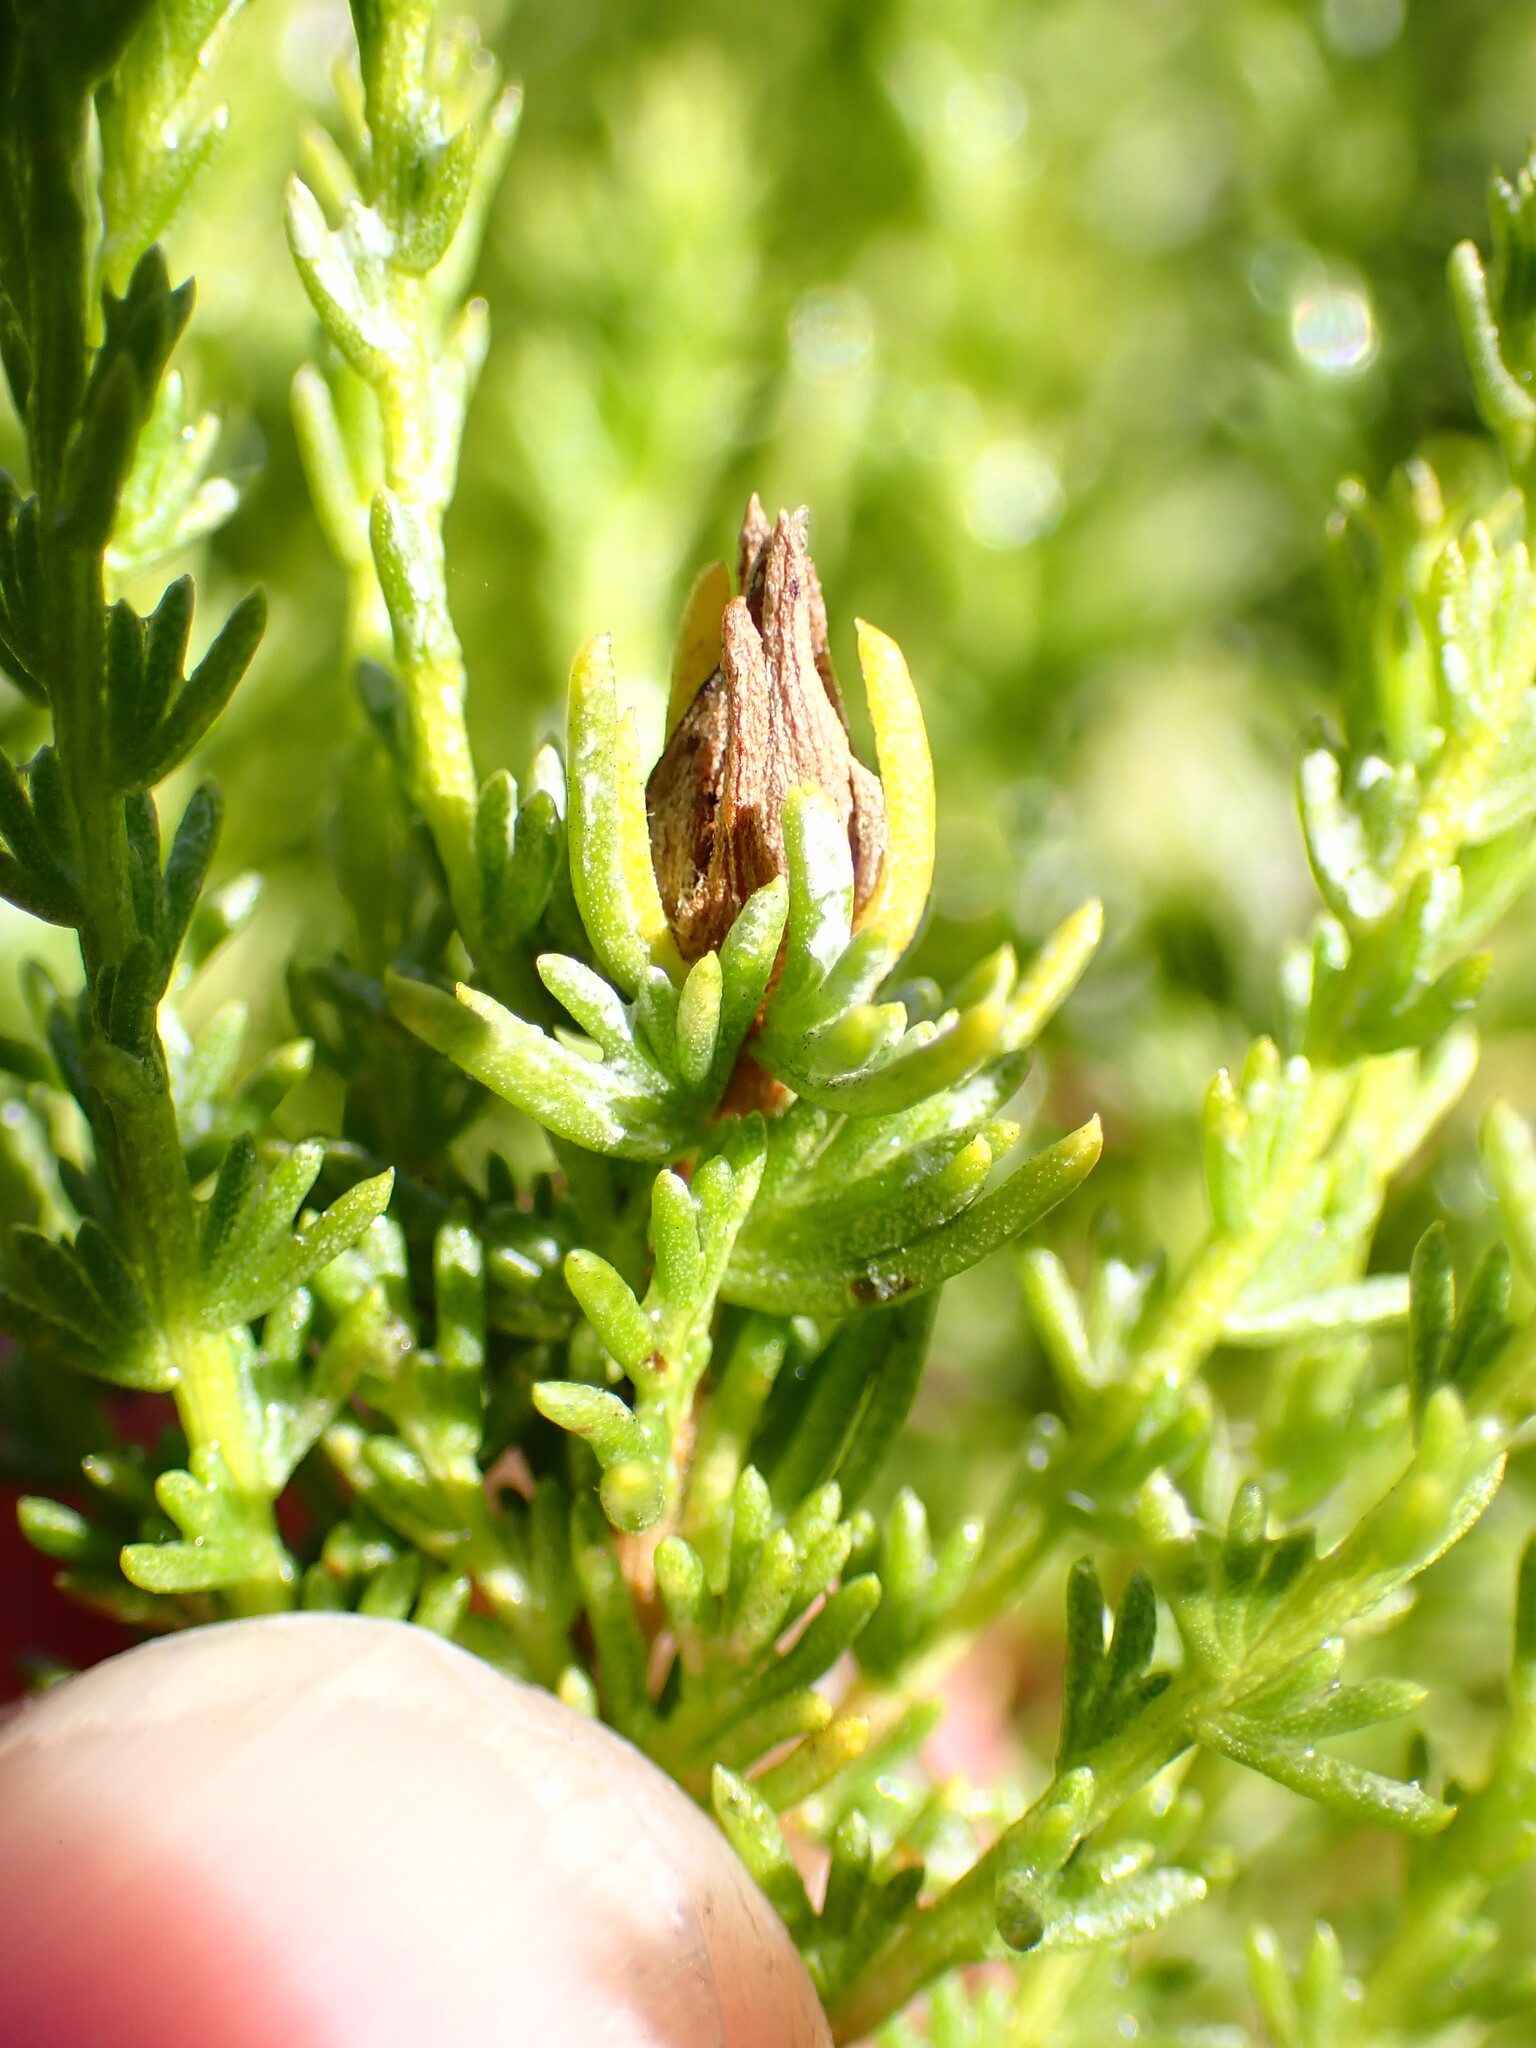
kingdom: Animalia
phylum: Arthropoda
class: Insecta
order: Diptera
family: Cecidomyiidae
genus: Prodiplosis
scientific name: Prodiplosis falcata
